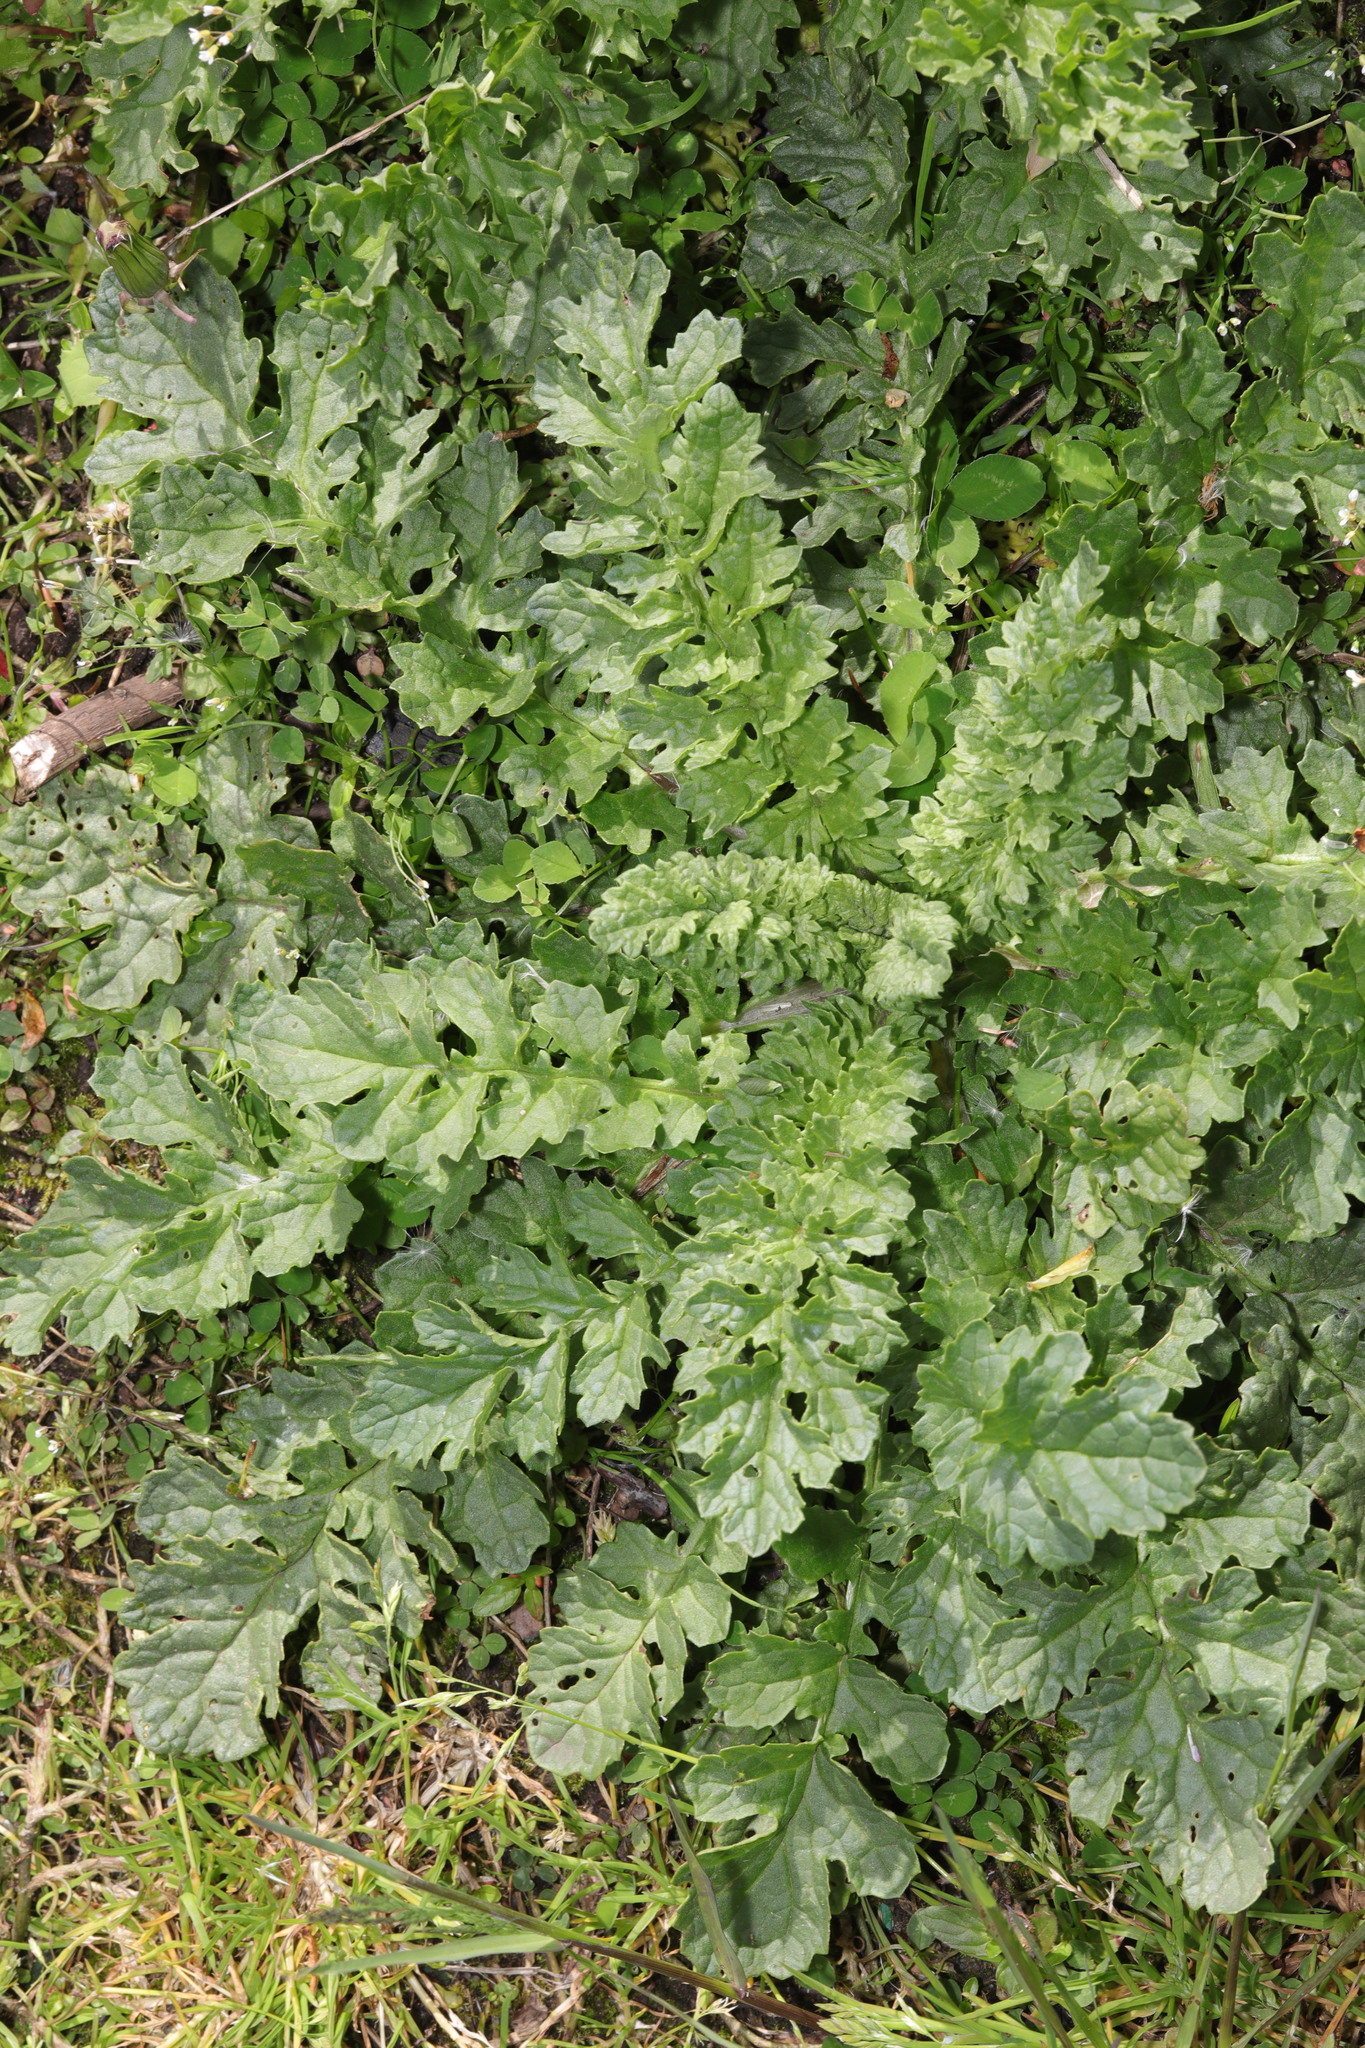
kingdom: Plantae
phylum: Tracheophyta
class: Magnoliopsida
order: Asterales
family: Asteraceae
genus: Jacobaea
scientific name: Jacobaea vulgaris
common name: Stinking willie
